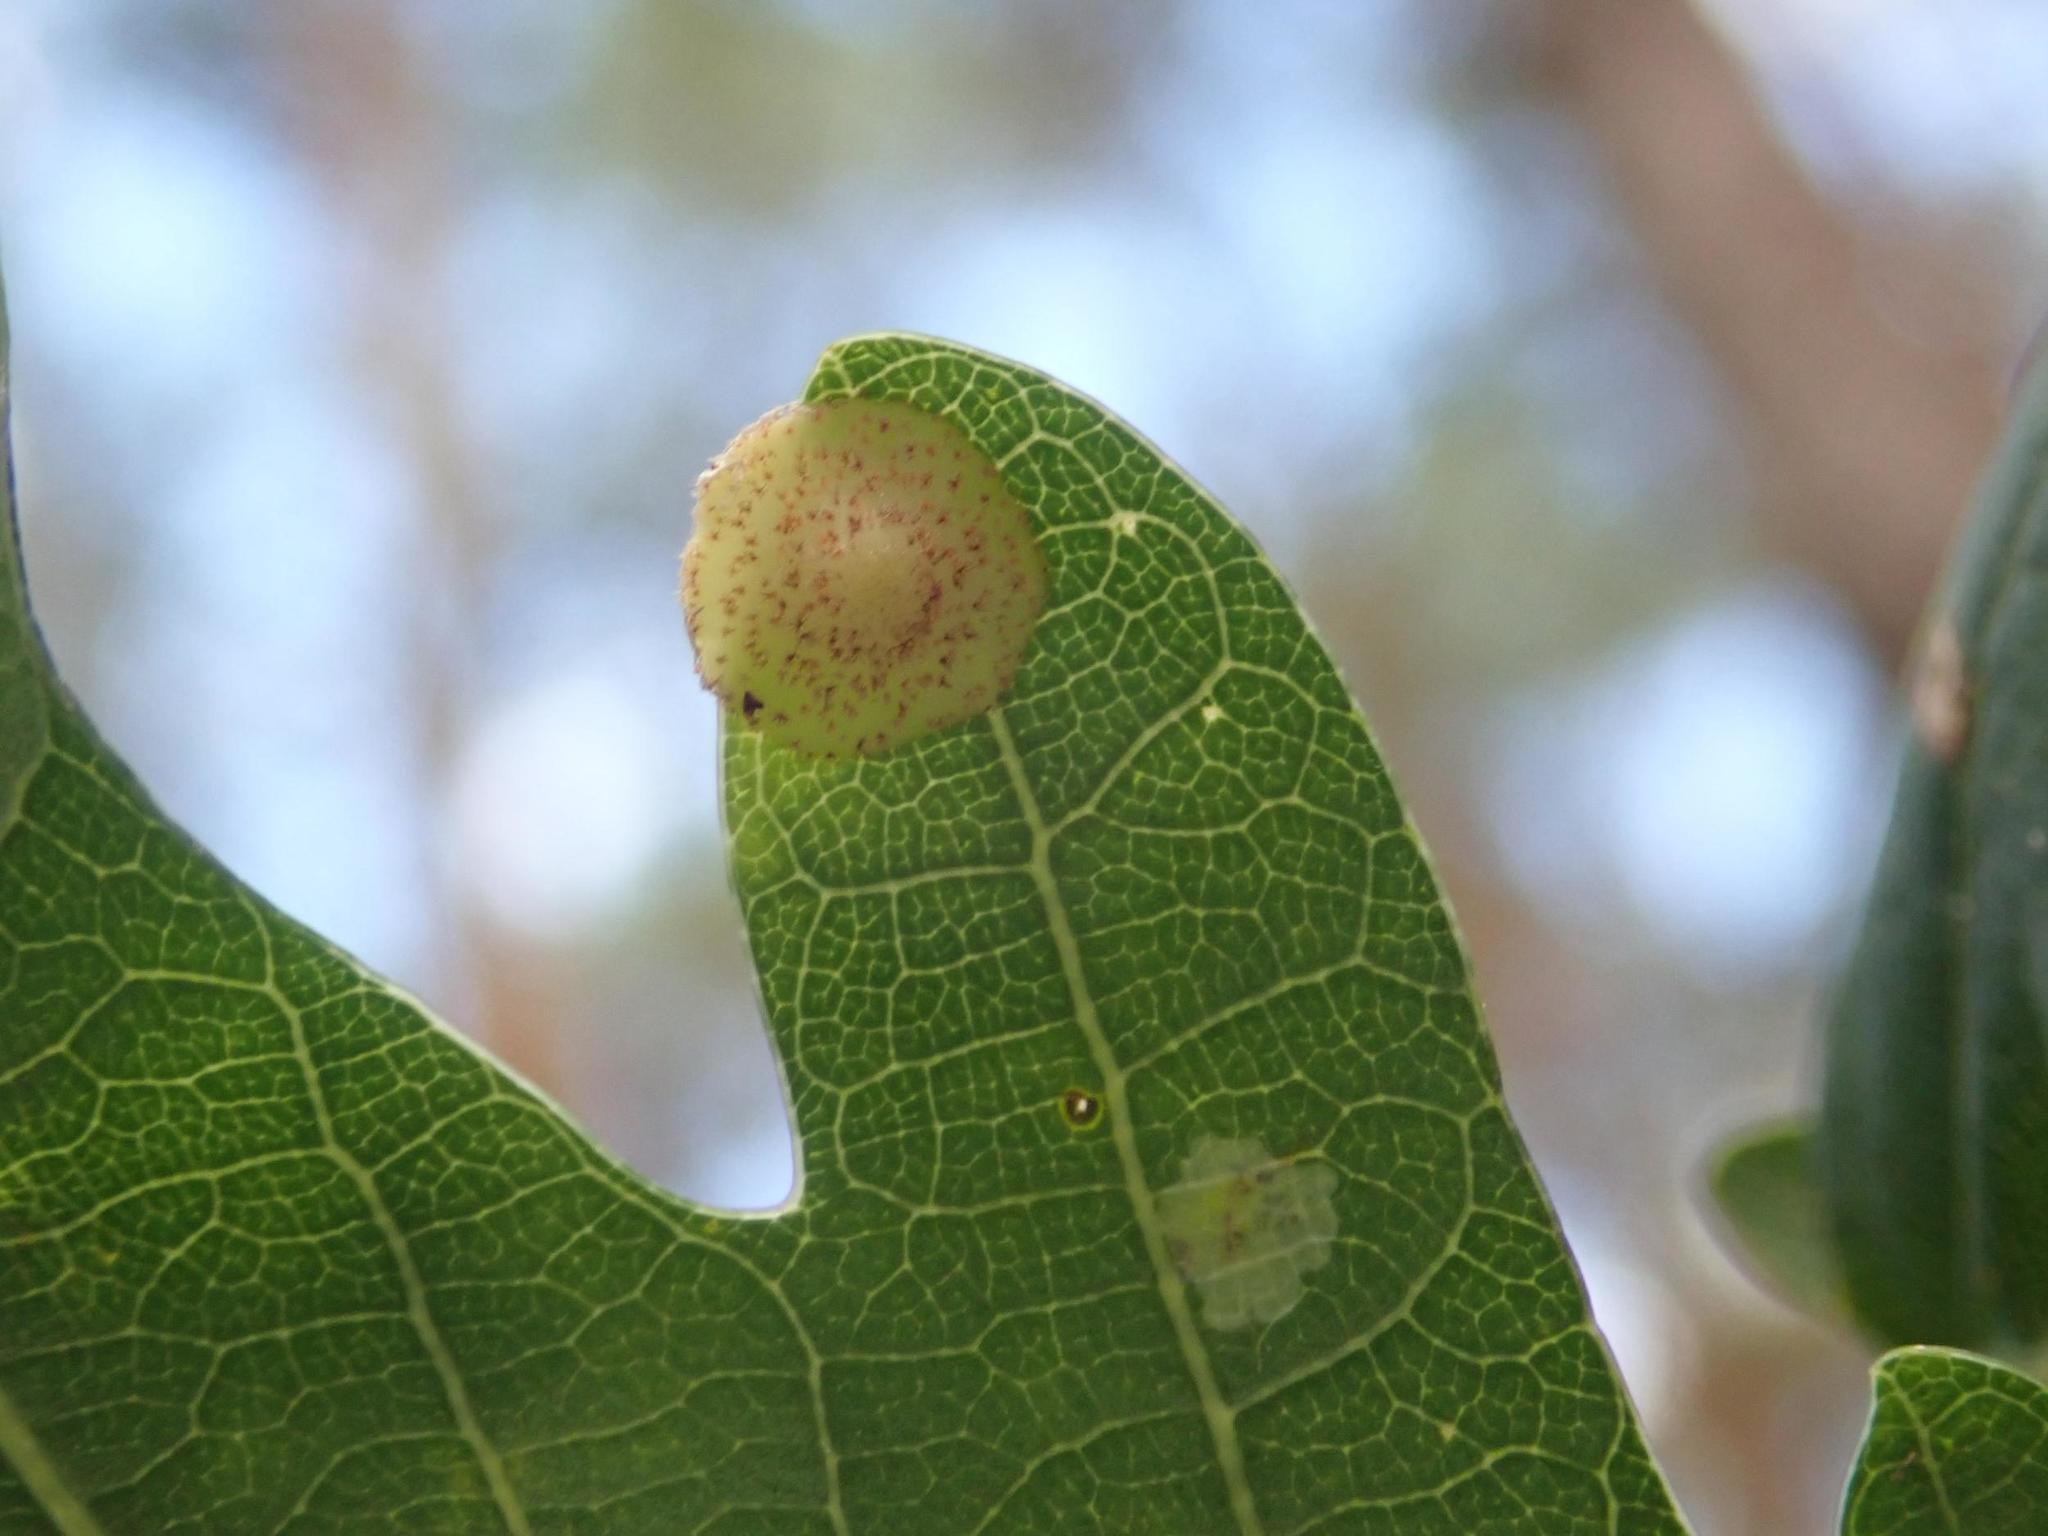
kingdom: Animalia
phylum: Arthropoda
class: Insecta
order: Hymenoptera
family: Cynipidae
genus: Neuroterus
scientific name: Neuroterus quercusbaccarum
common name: Common spangle gall
